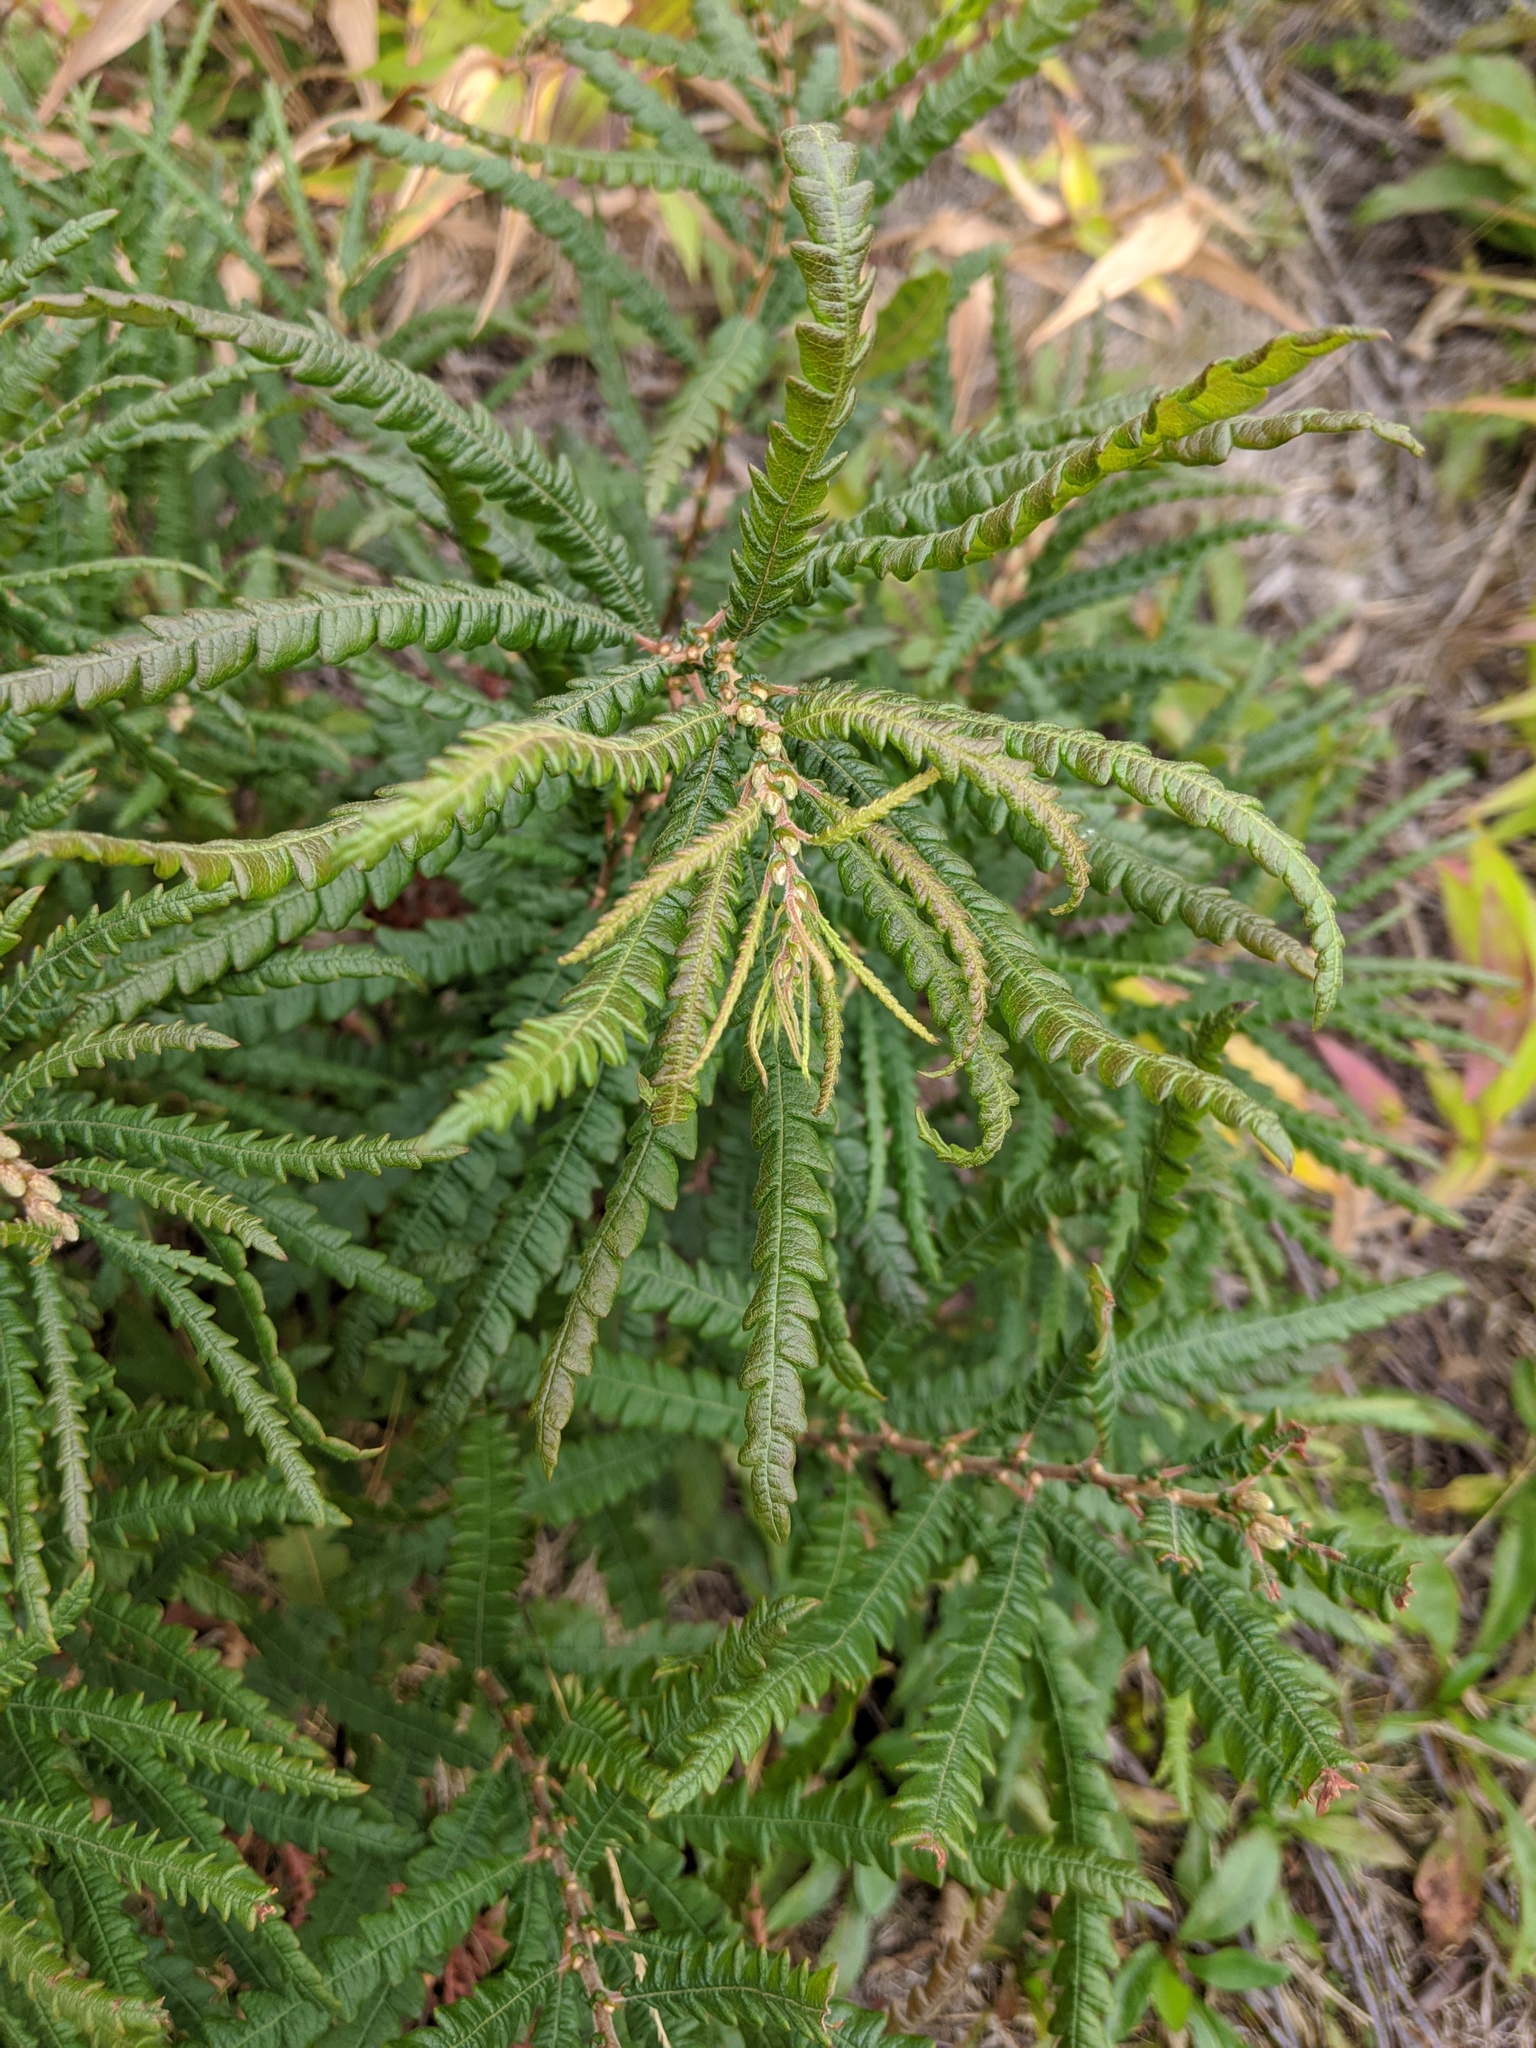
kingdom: Plantae
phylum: Tracheophyta
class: Magnoliopsida
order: Fagales
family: Myricaceae
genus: Comptonia
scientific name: Comptonia peregrina
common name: Sweet-fern
